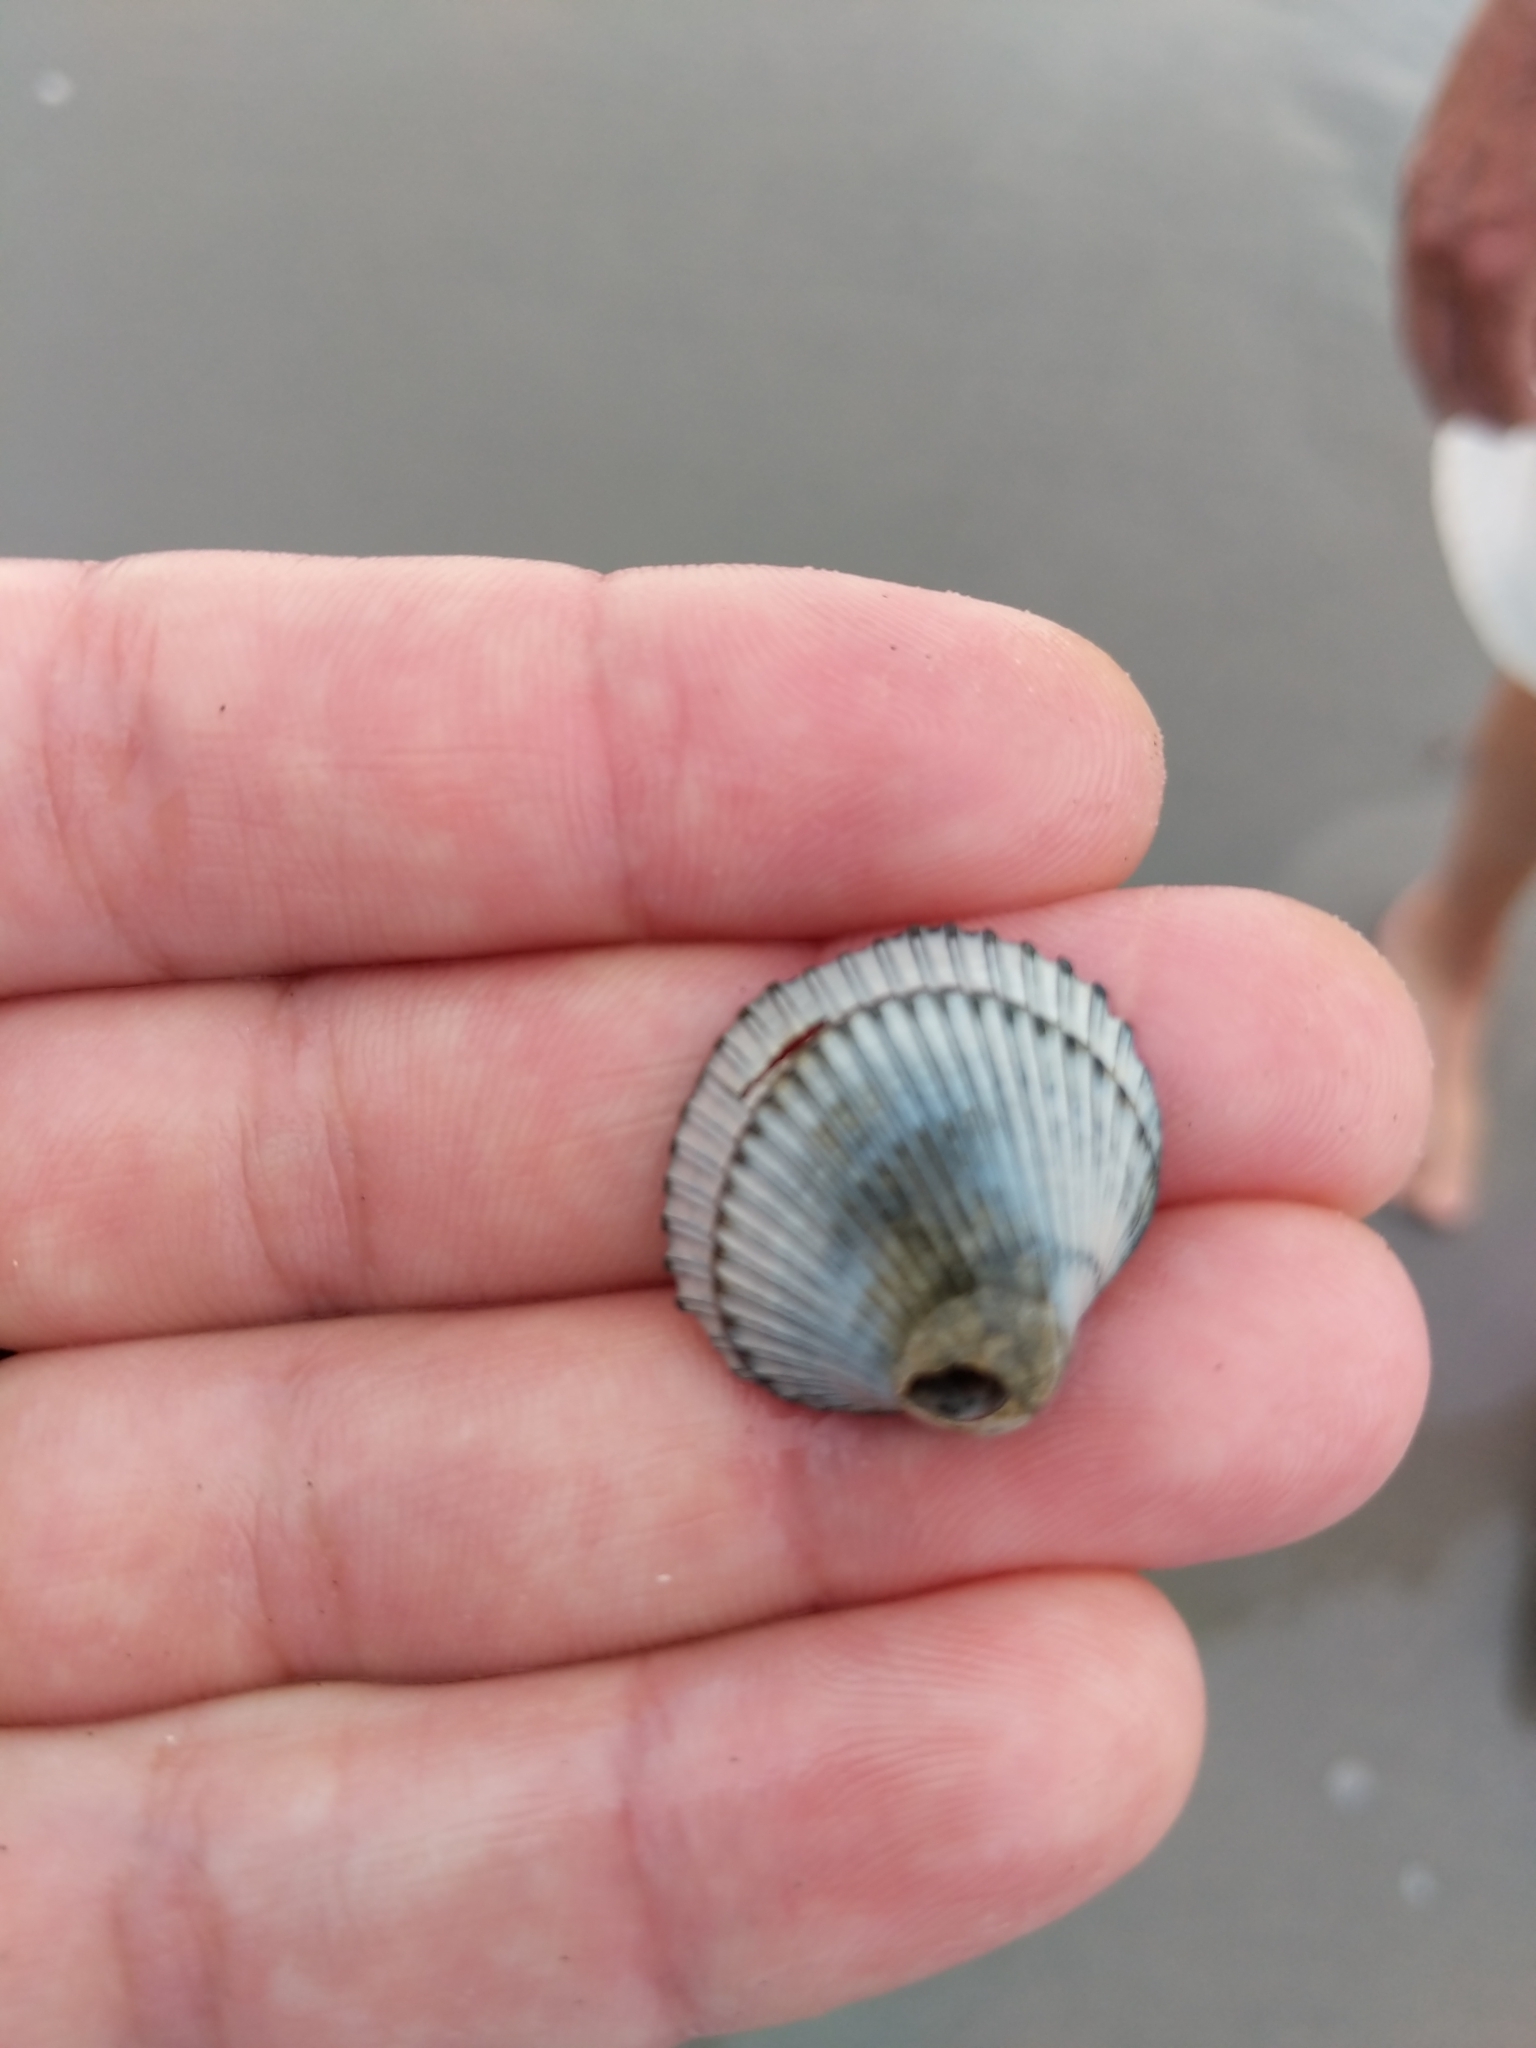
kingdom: Animalia
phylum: Mollusca
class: Bivalvia
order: Arcida
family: Arcidae
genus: Lunarca
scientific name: Lunarca ovalis
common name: Blood ark
